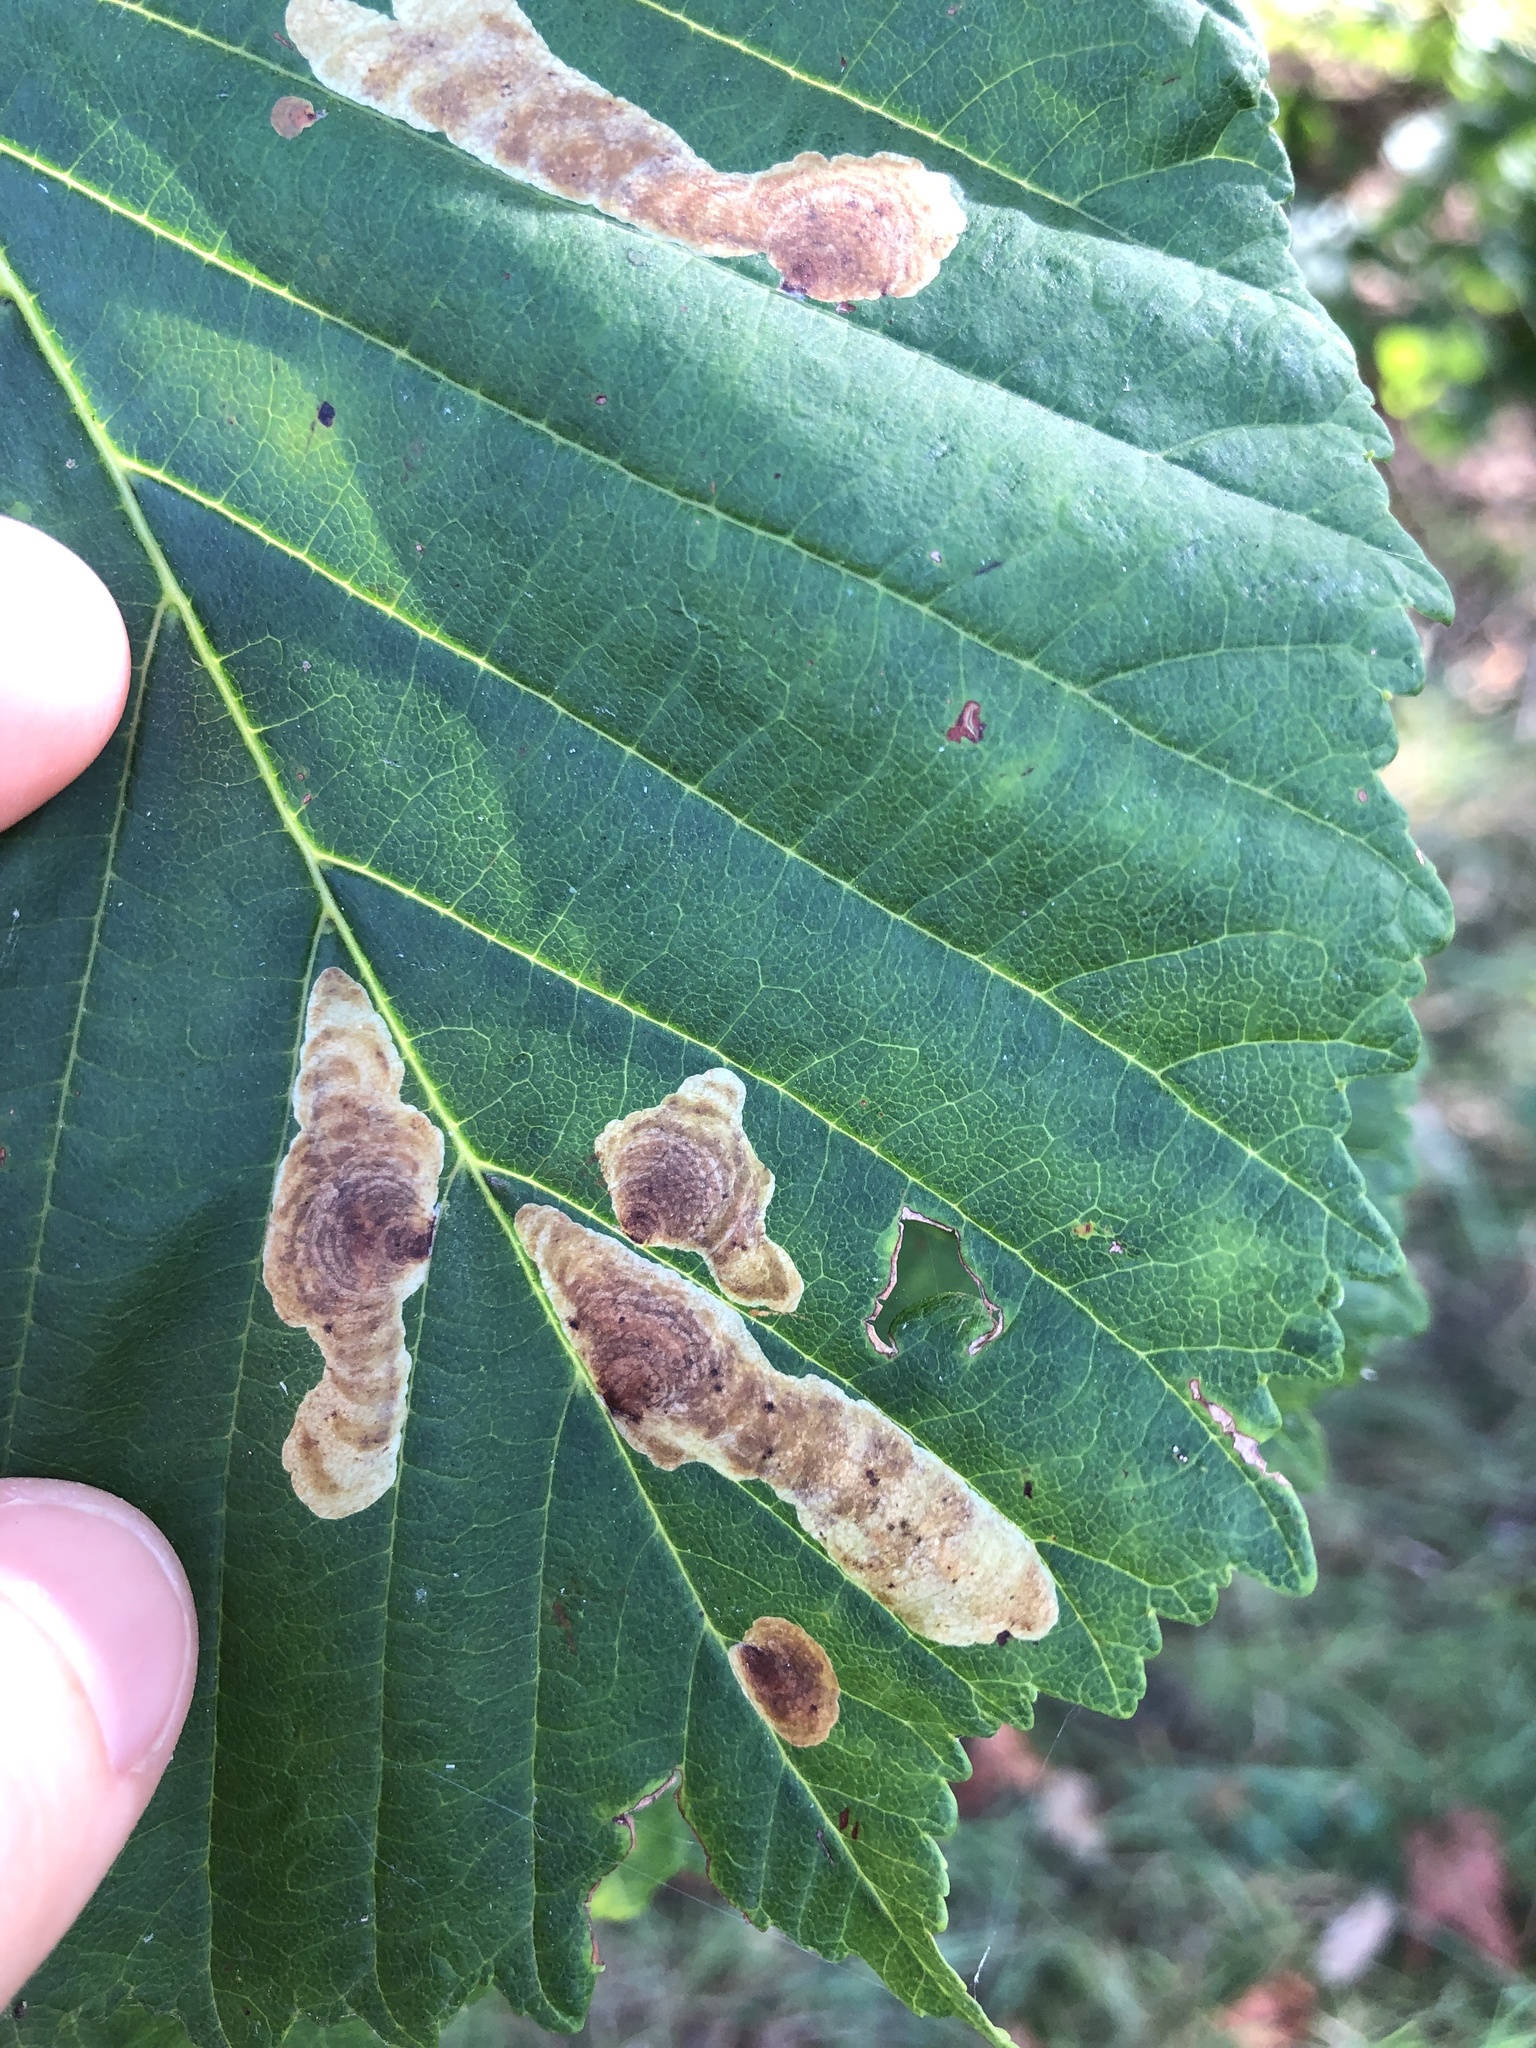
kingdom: Animalia
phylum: Arthropoda
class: Insecta
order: Lepidoptera
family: Gracillariidae
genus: Cameraria
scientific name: Cameraria ohridella
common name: Horse-chestnut leaf-miner
